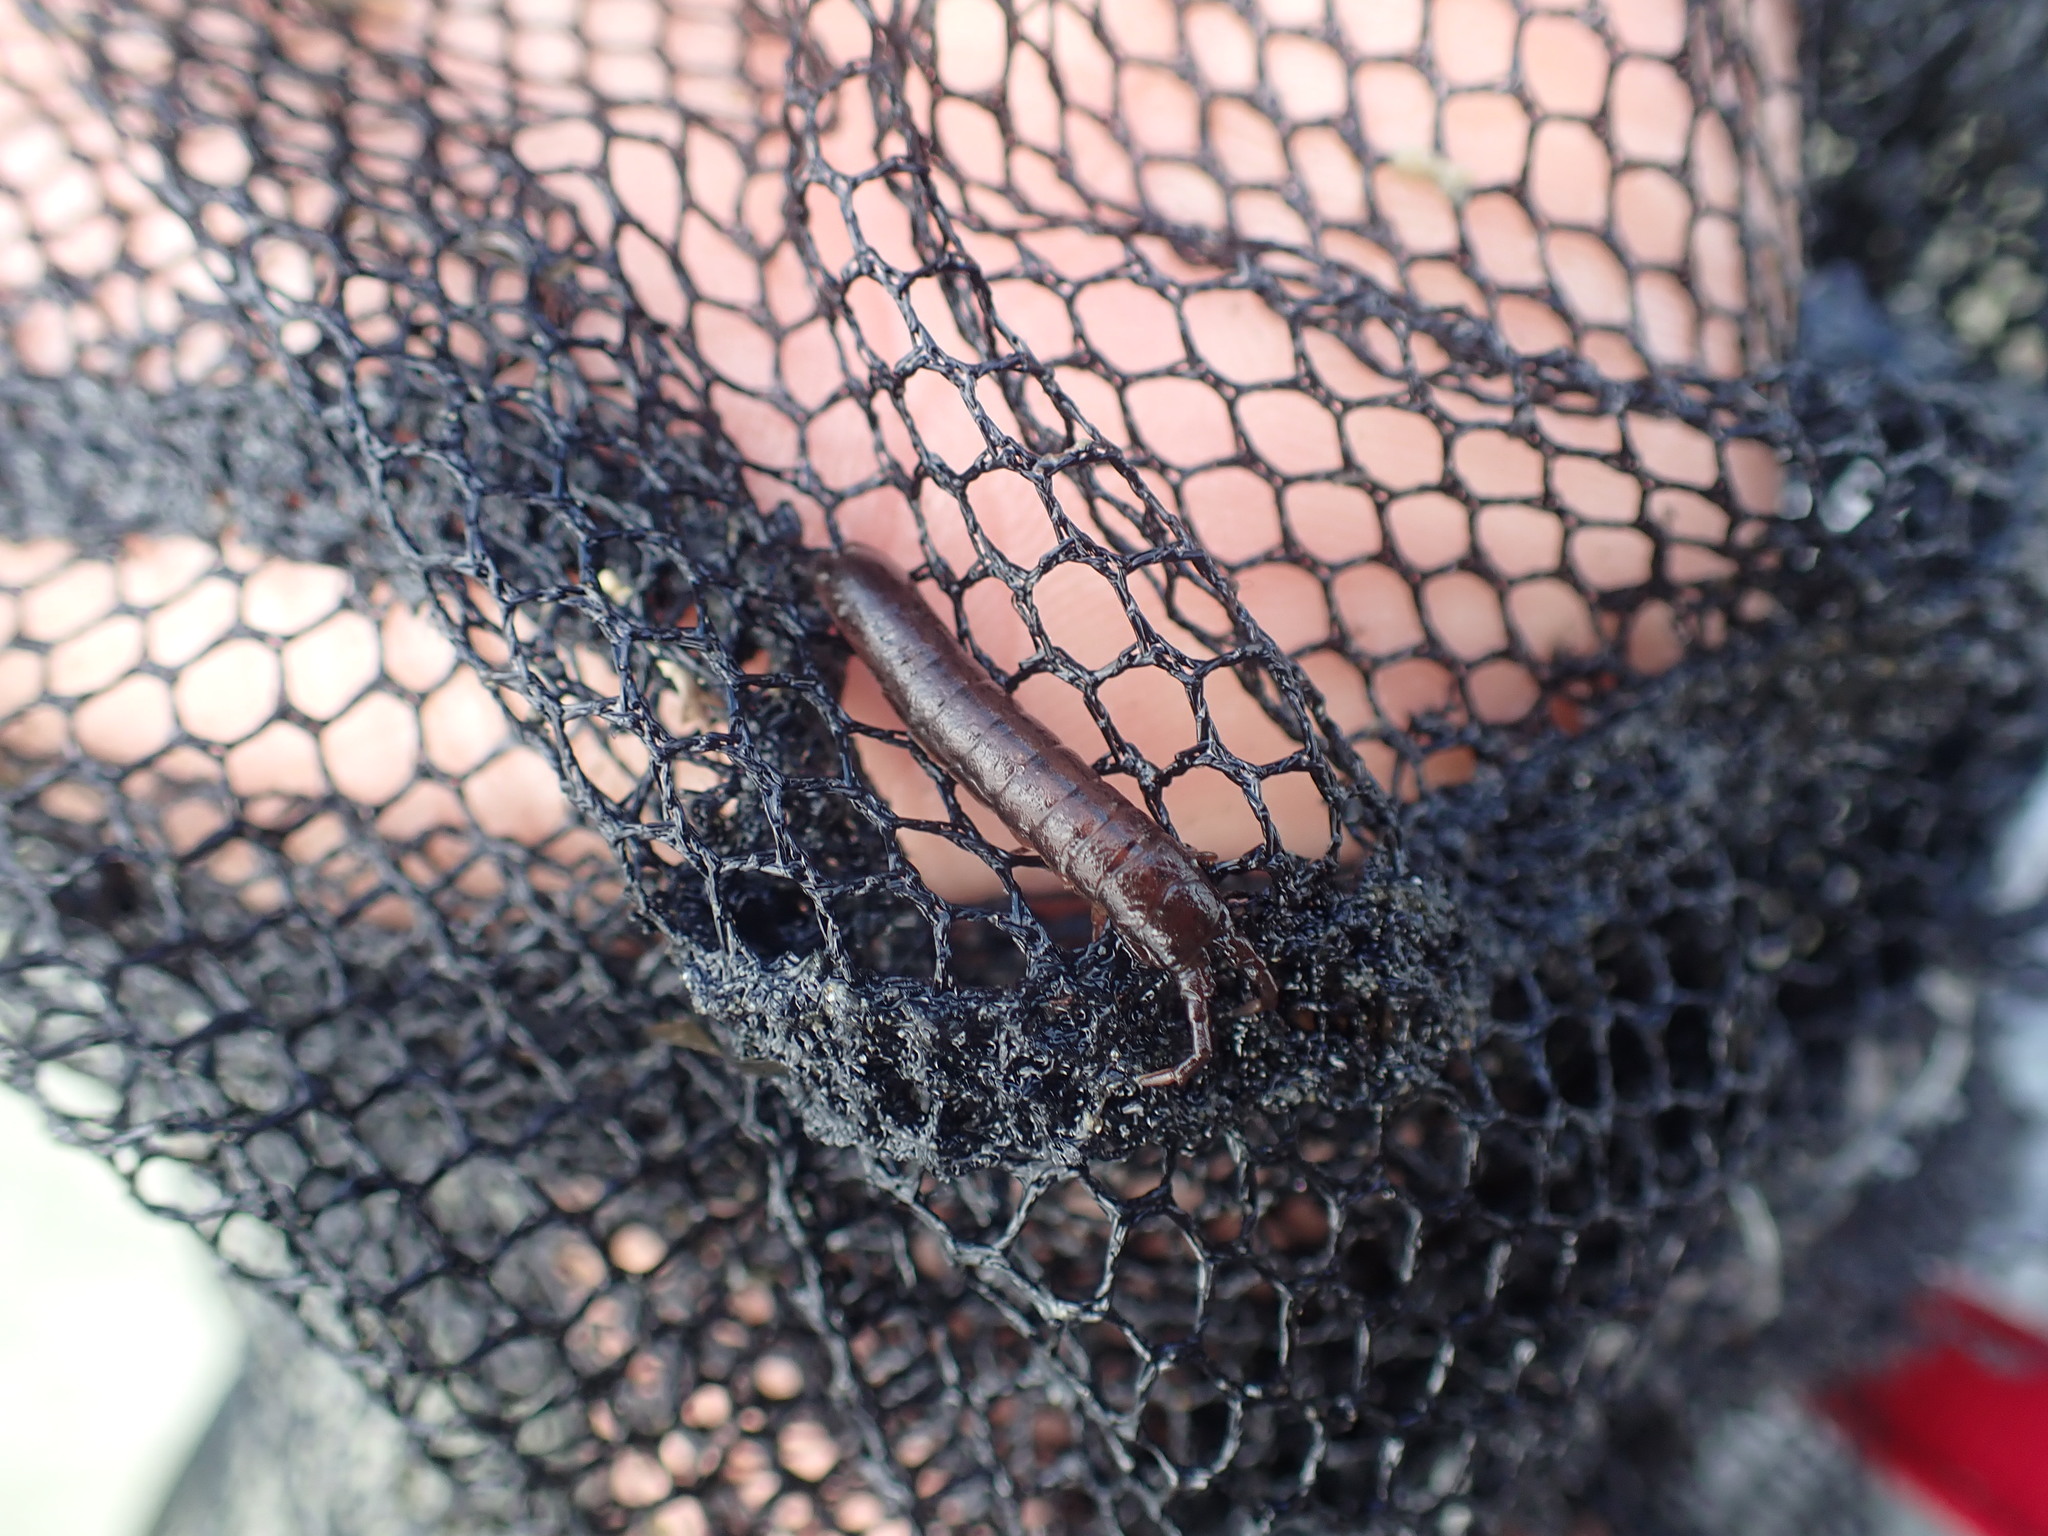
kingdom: Animalia
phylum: Arthropoda
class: Malacostraca
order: Isopoda
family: Idoteidae
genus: Batedotea
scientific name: Batedotea elongata
